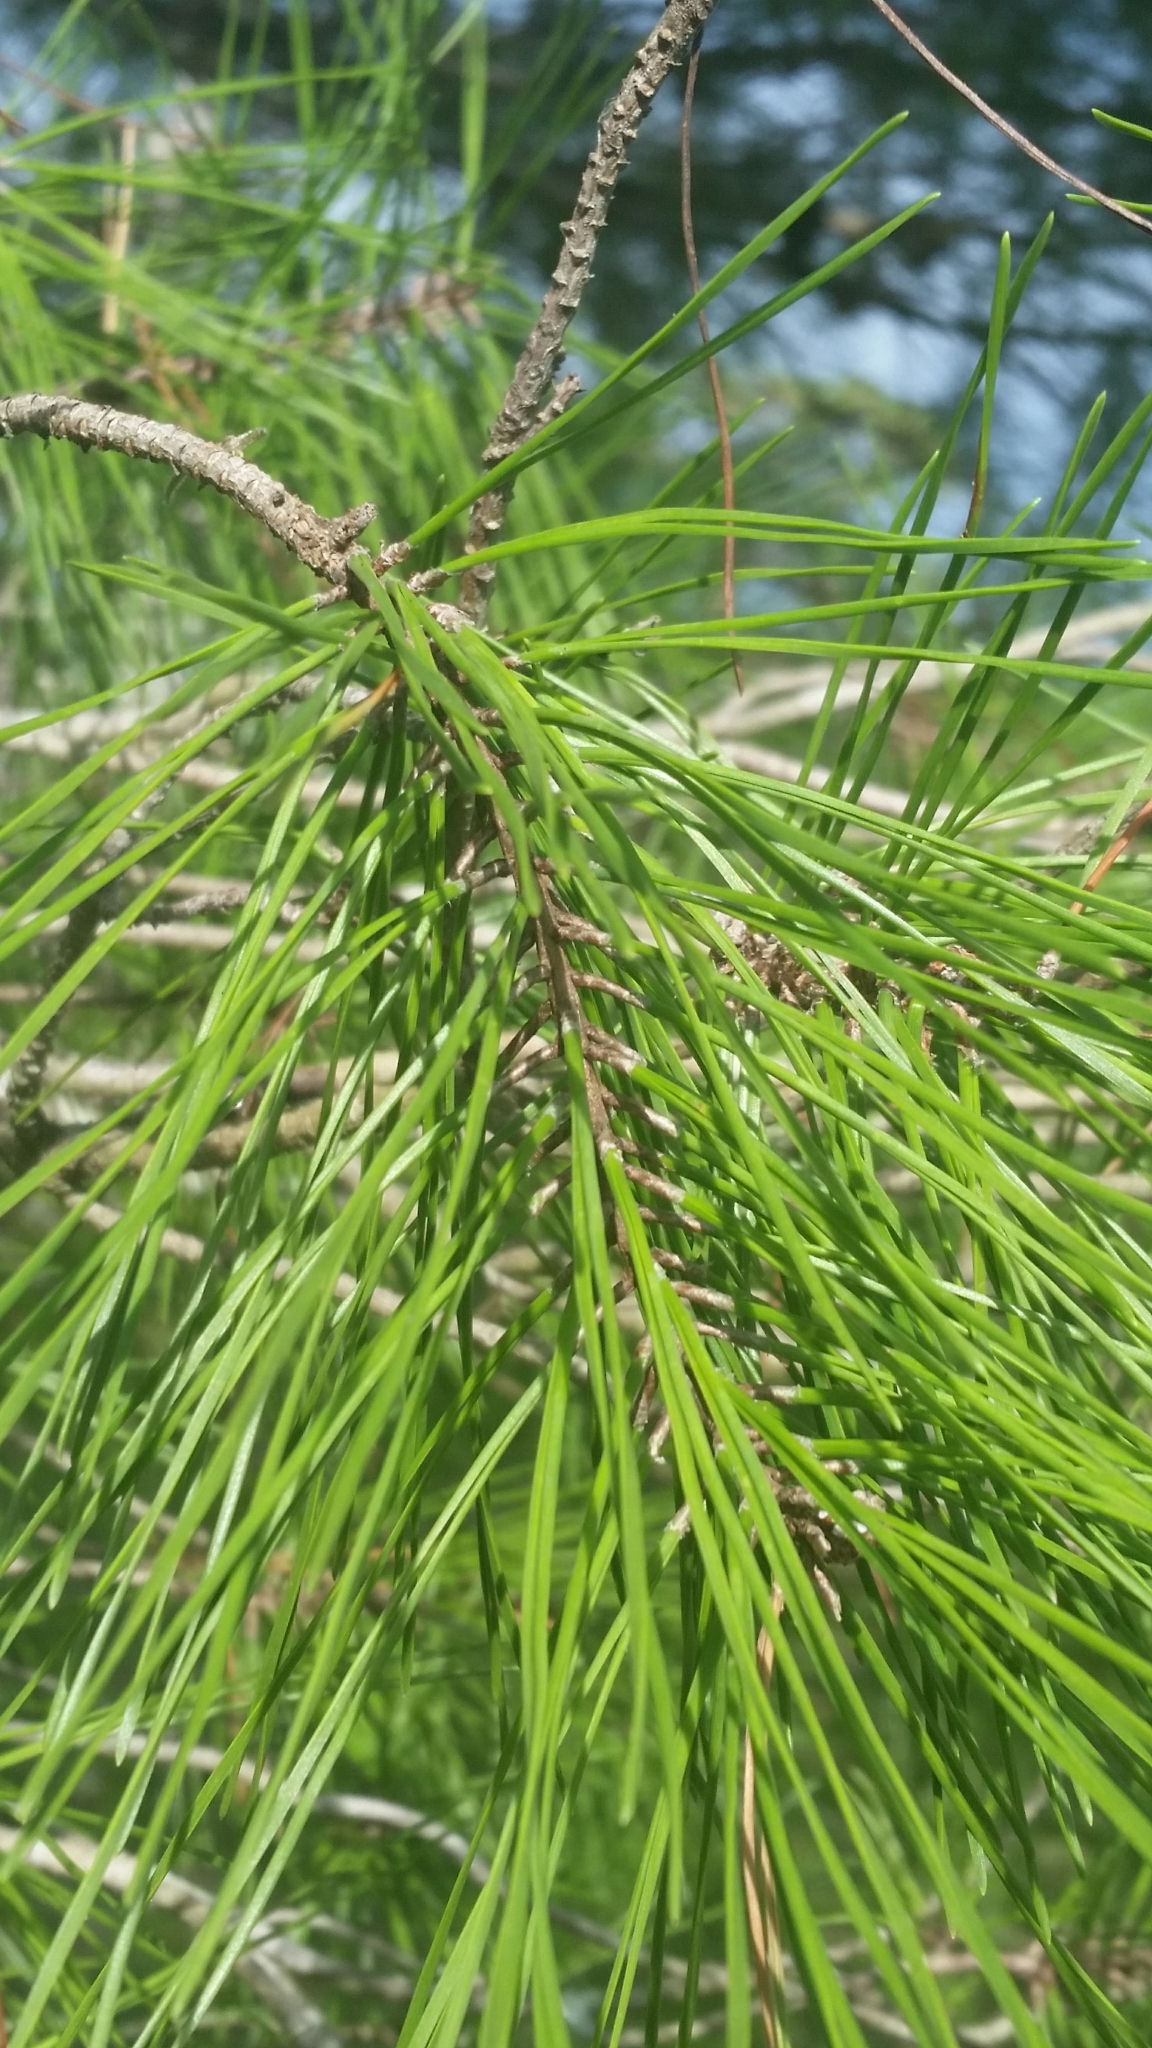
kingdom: Plantae
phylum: Tracheophyta
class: Pinopsida
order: Pinales
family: Pinaceae
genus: Pinus
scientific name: Pinus clausa
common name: Sand pine
